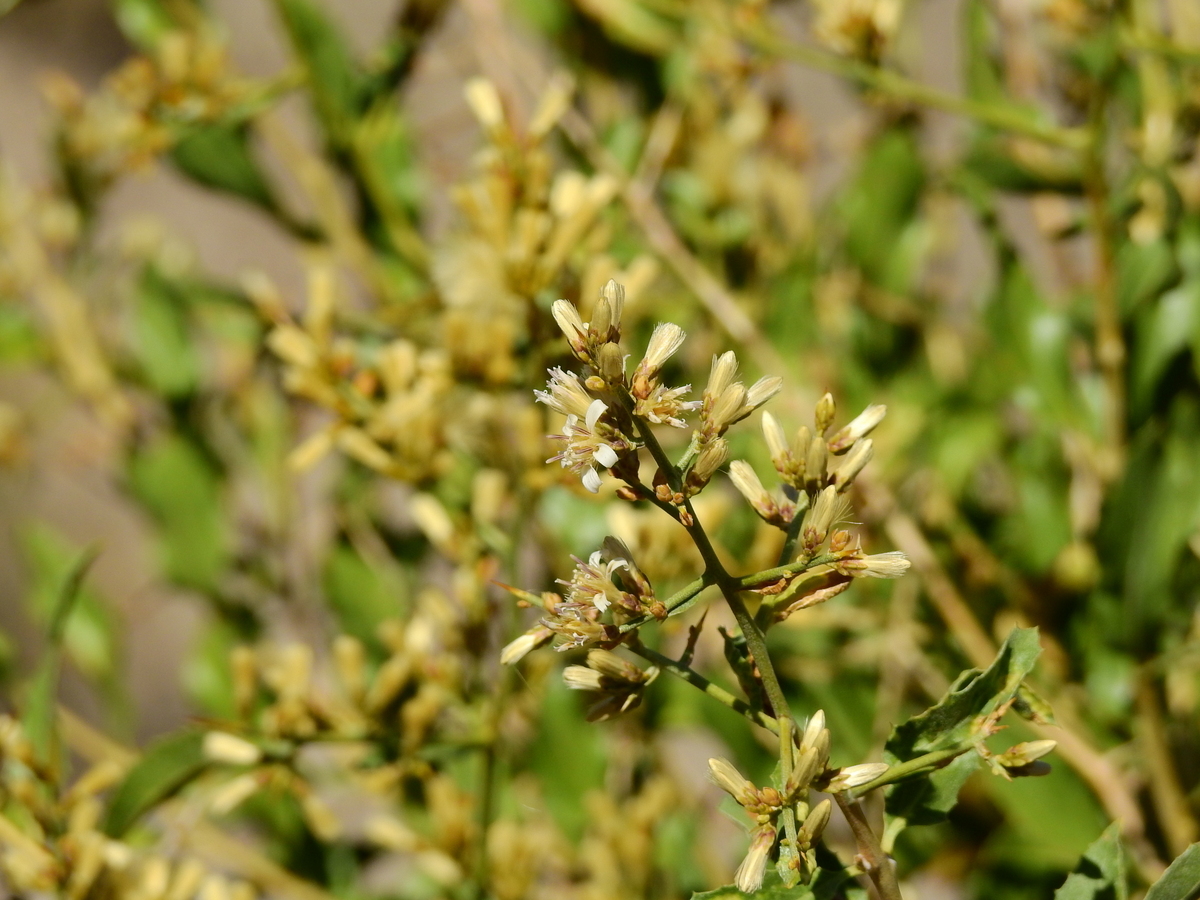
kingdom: Plantae
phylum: Tracheophyta
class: Magnoliopsida
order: Asterales
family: Asteraceae
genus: Proustia
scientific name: Proustia cuneifolia
